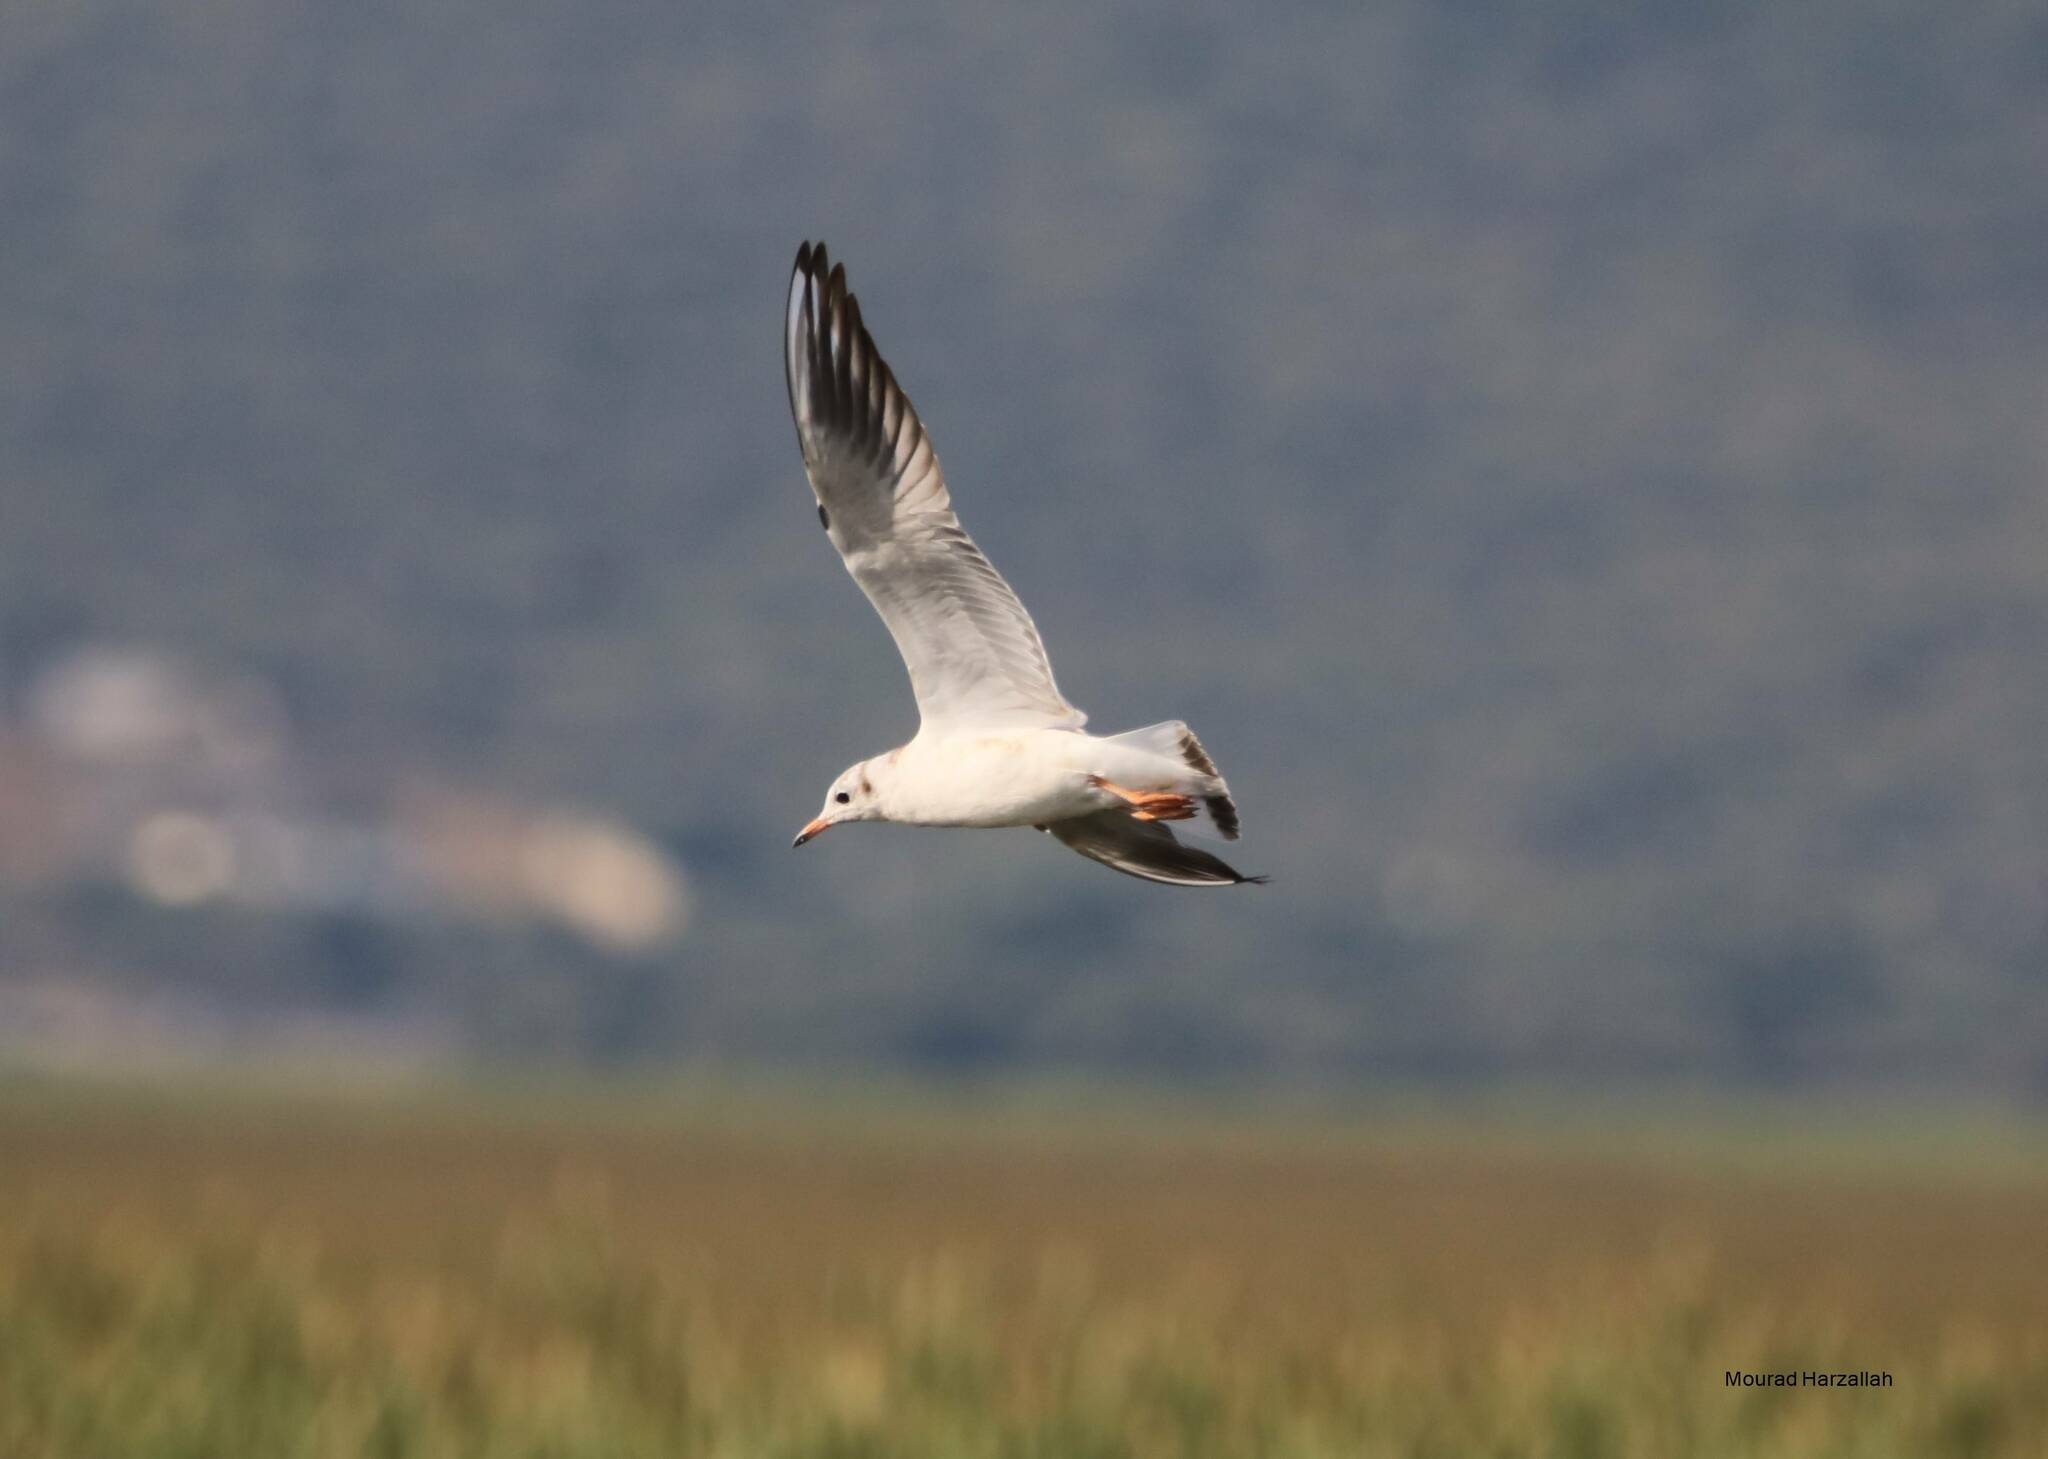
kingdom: Animalia
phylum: Chordata
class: Aves
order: Charadriiformes
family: Laridae
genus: Chroicocephalus
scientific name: Chroicocephalus ridibundus
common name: Black-headed gull
